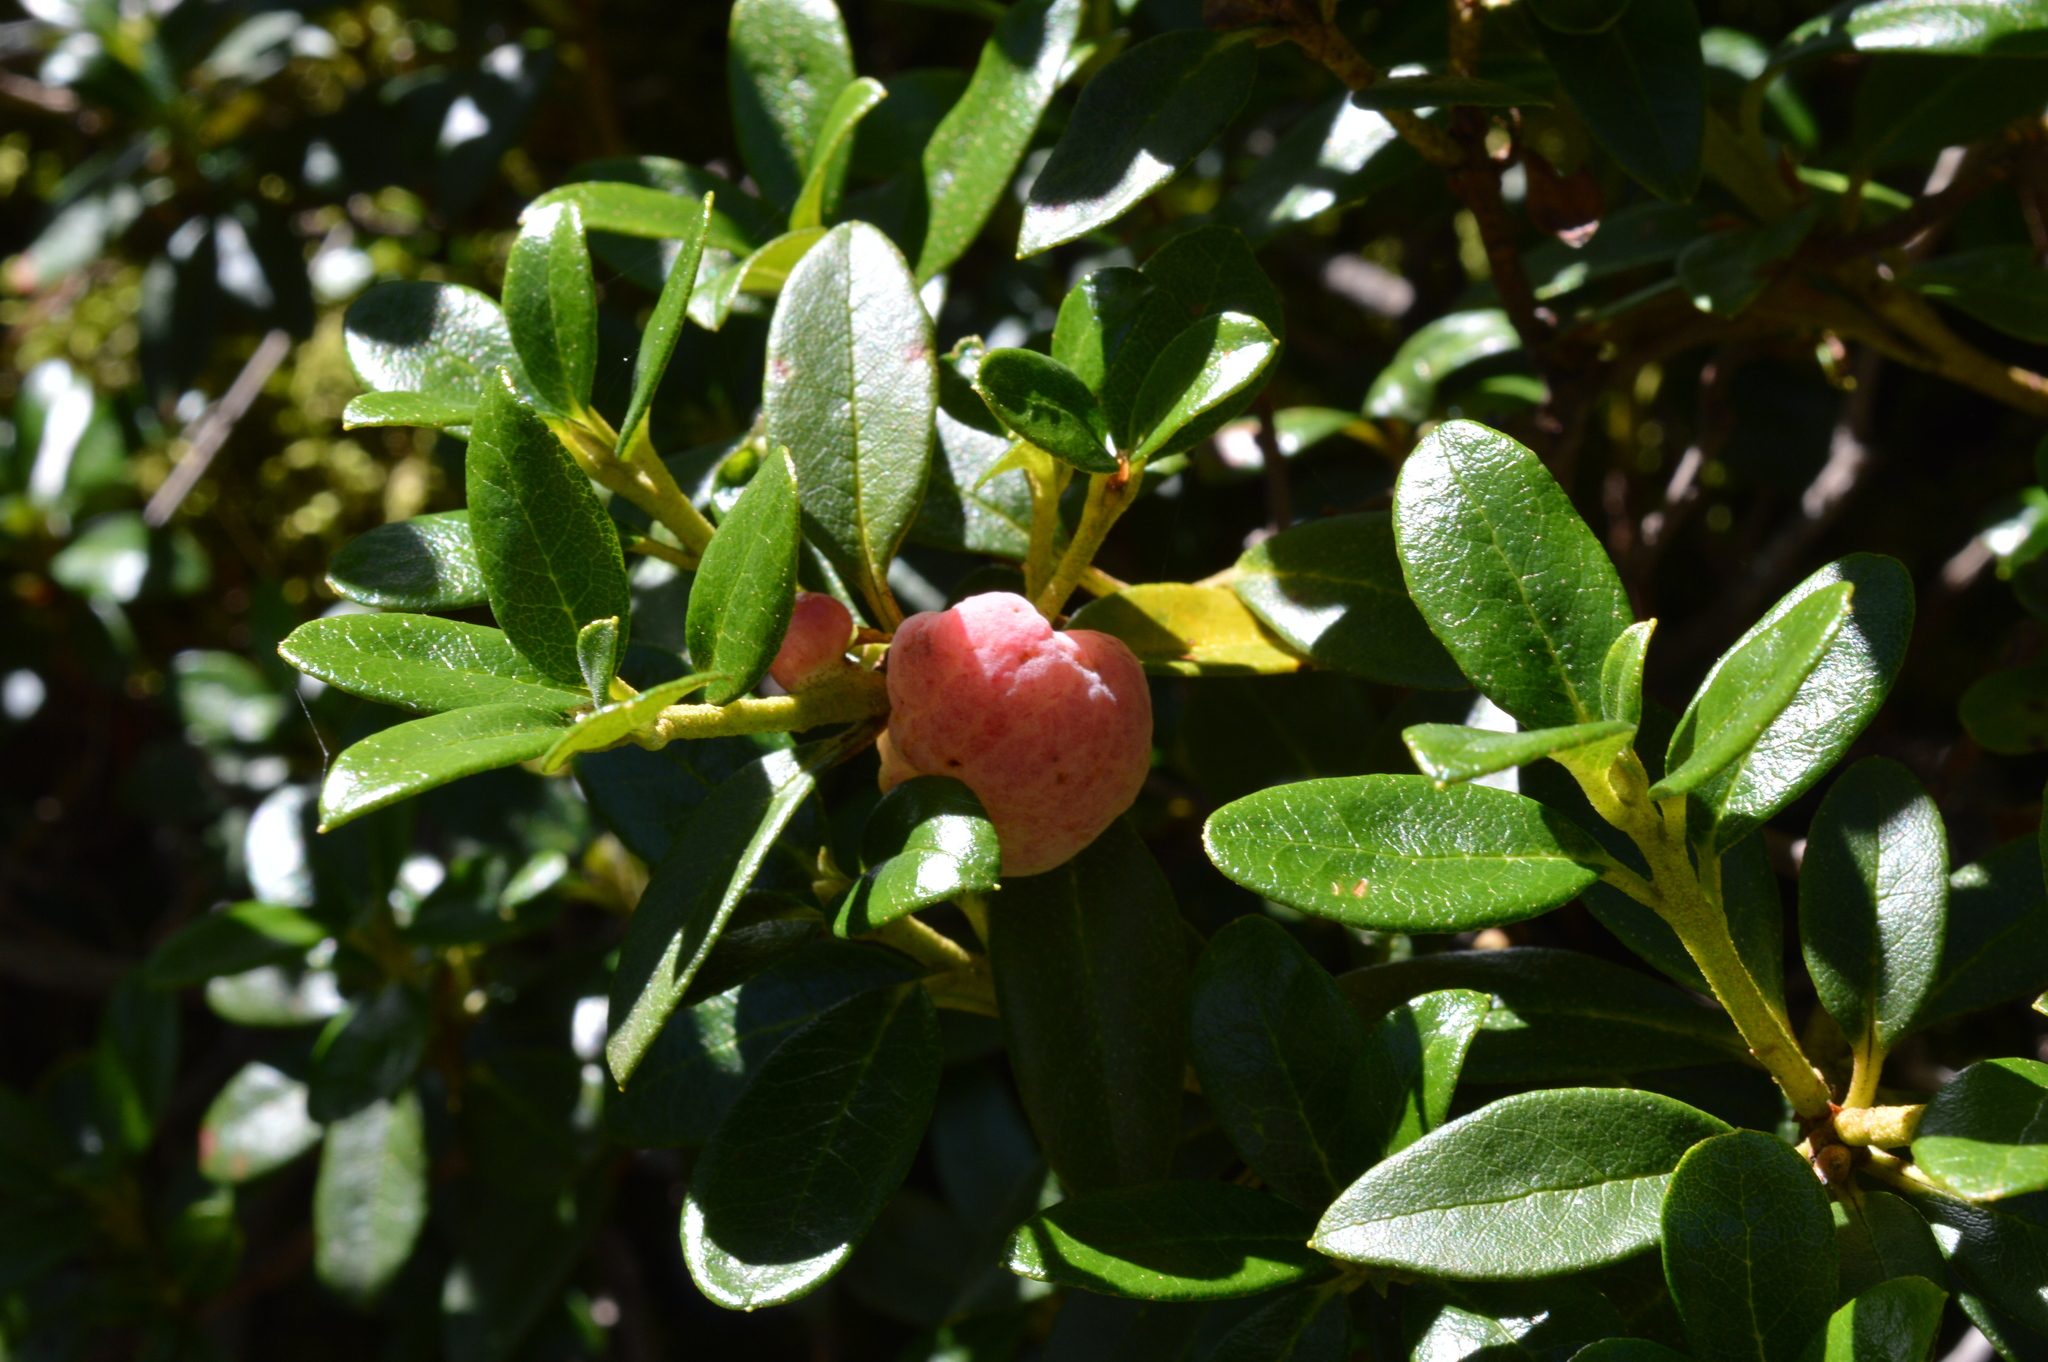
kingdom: Plantae
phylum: Tracheophyta
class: Magnoliopsida
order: Ericales
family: Ericaceae
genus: Rhododendron
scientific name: Rhododendron ferrugineum
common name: Alpenrose
